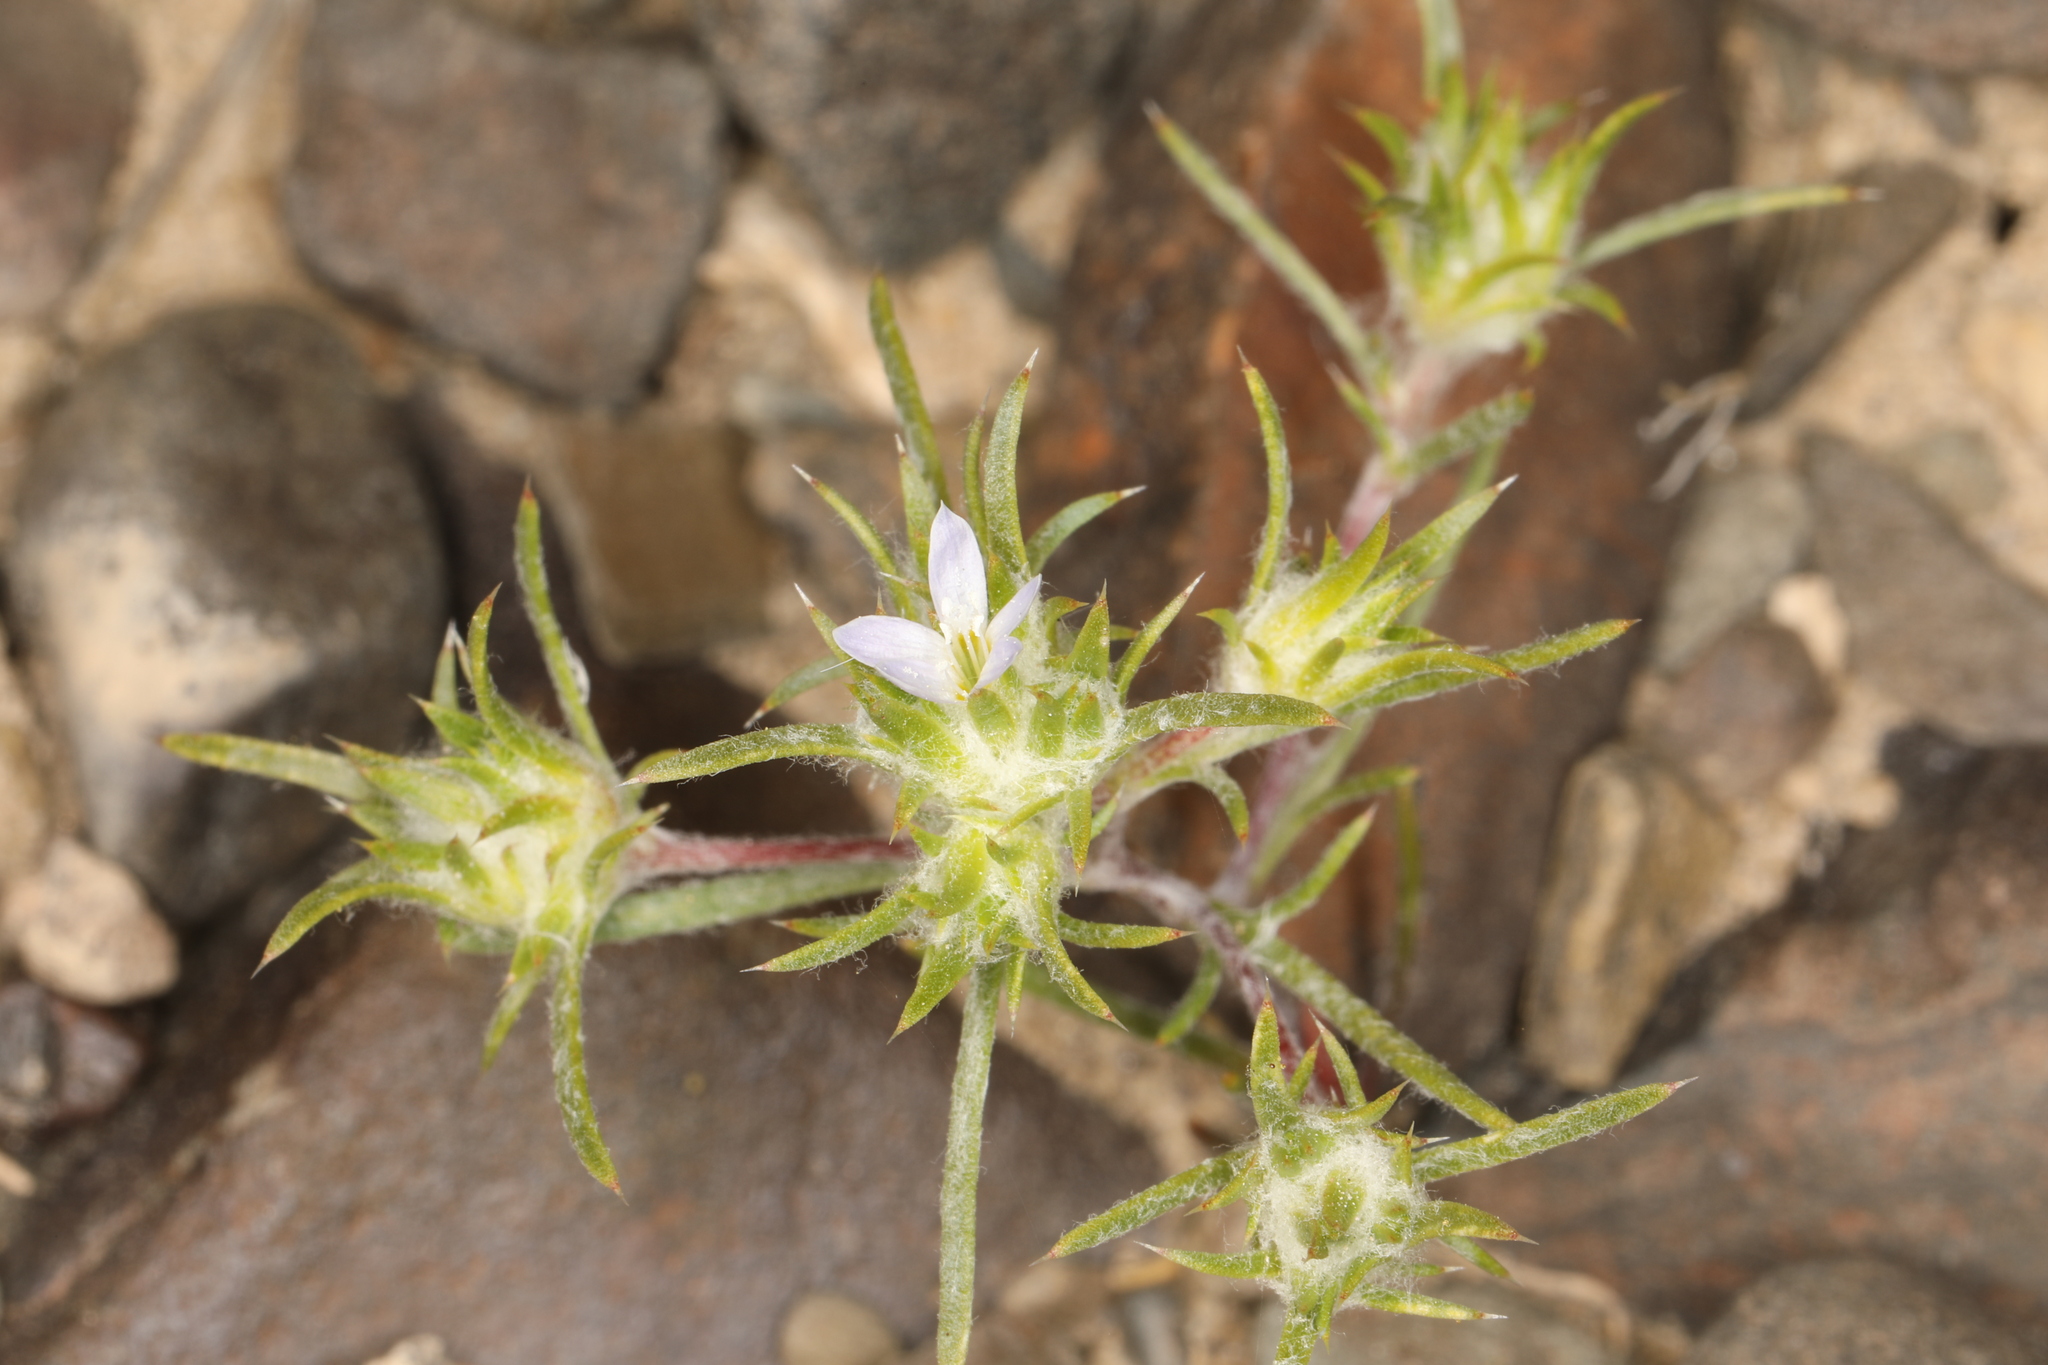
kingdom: Plantae
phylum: Tracheophyta
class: Magnoliopsida
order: Ericales
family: Polemoniaceae
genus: Eriastrum
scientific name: Eriastrum diffusum
